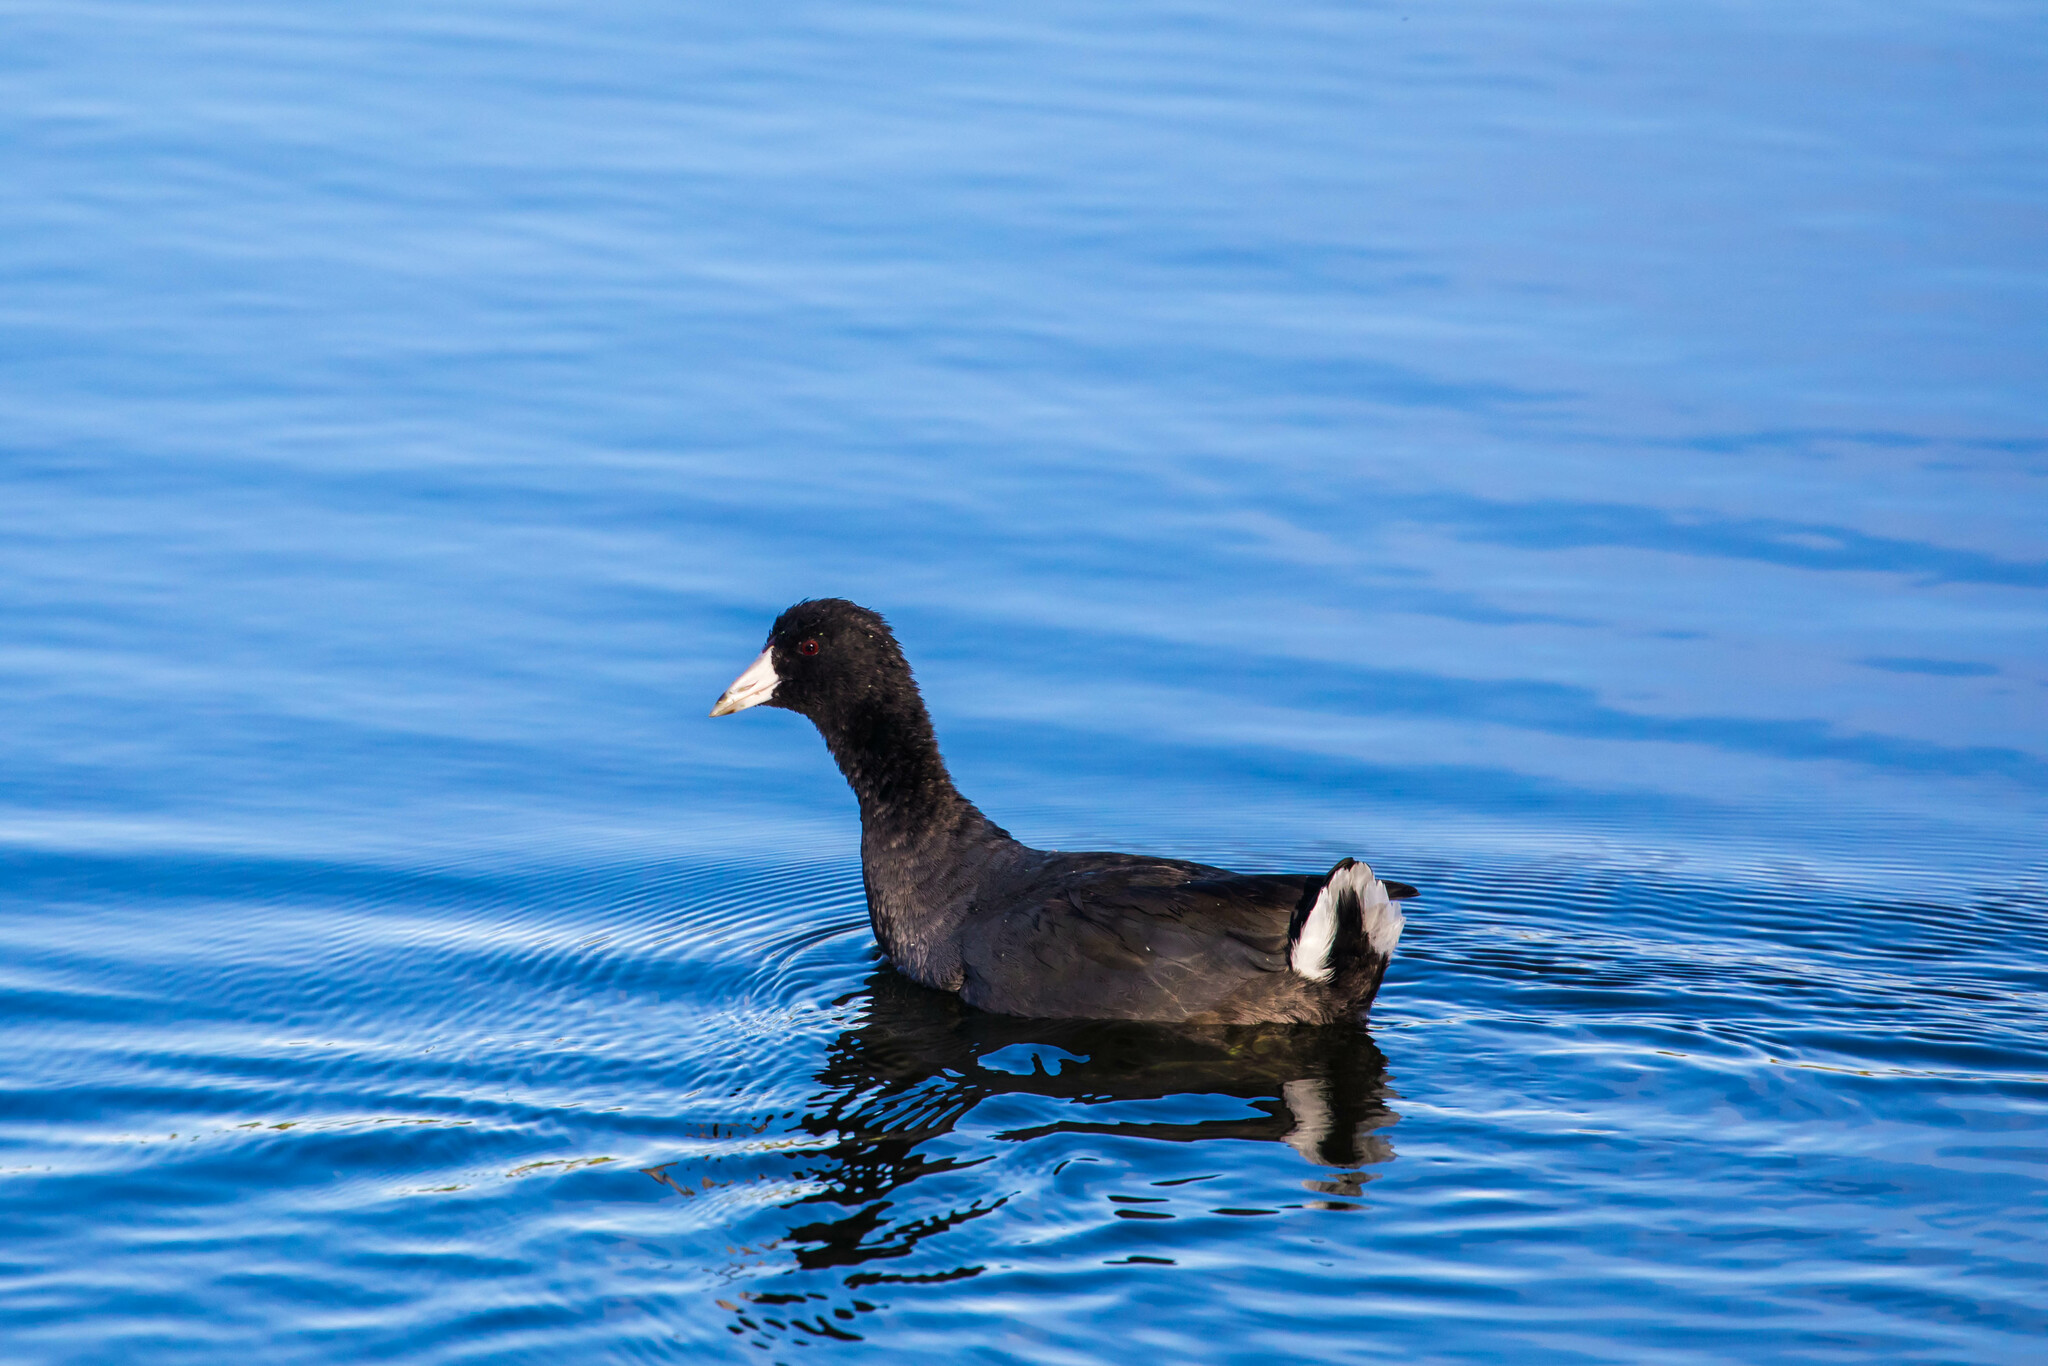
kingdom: Animalia
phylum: Chordata
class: Aves
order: Gruiformes
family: Rallidae
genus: Fulica
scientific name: Fulica americana
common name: American coot
